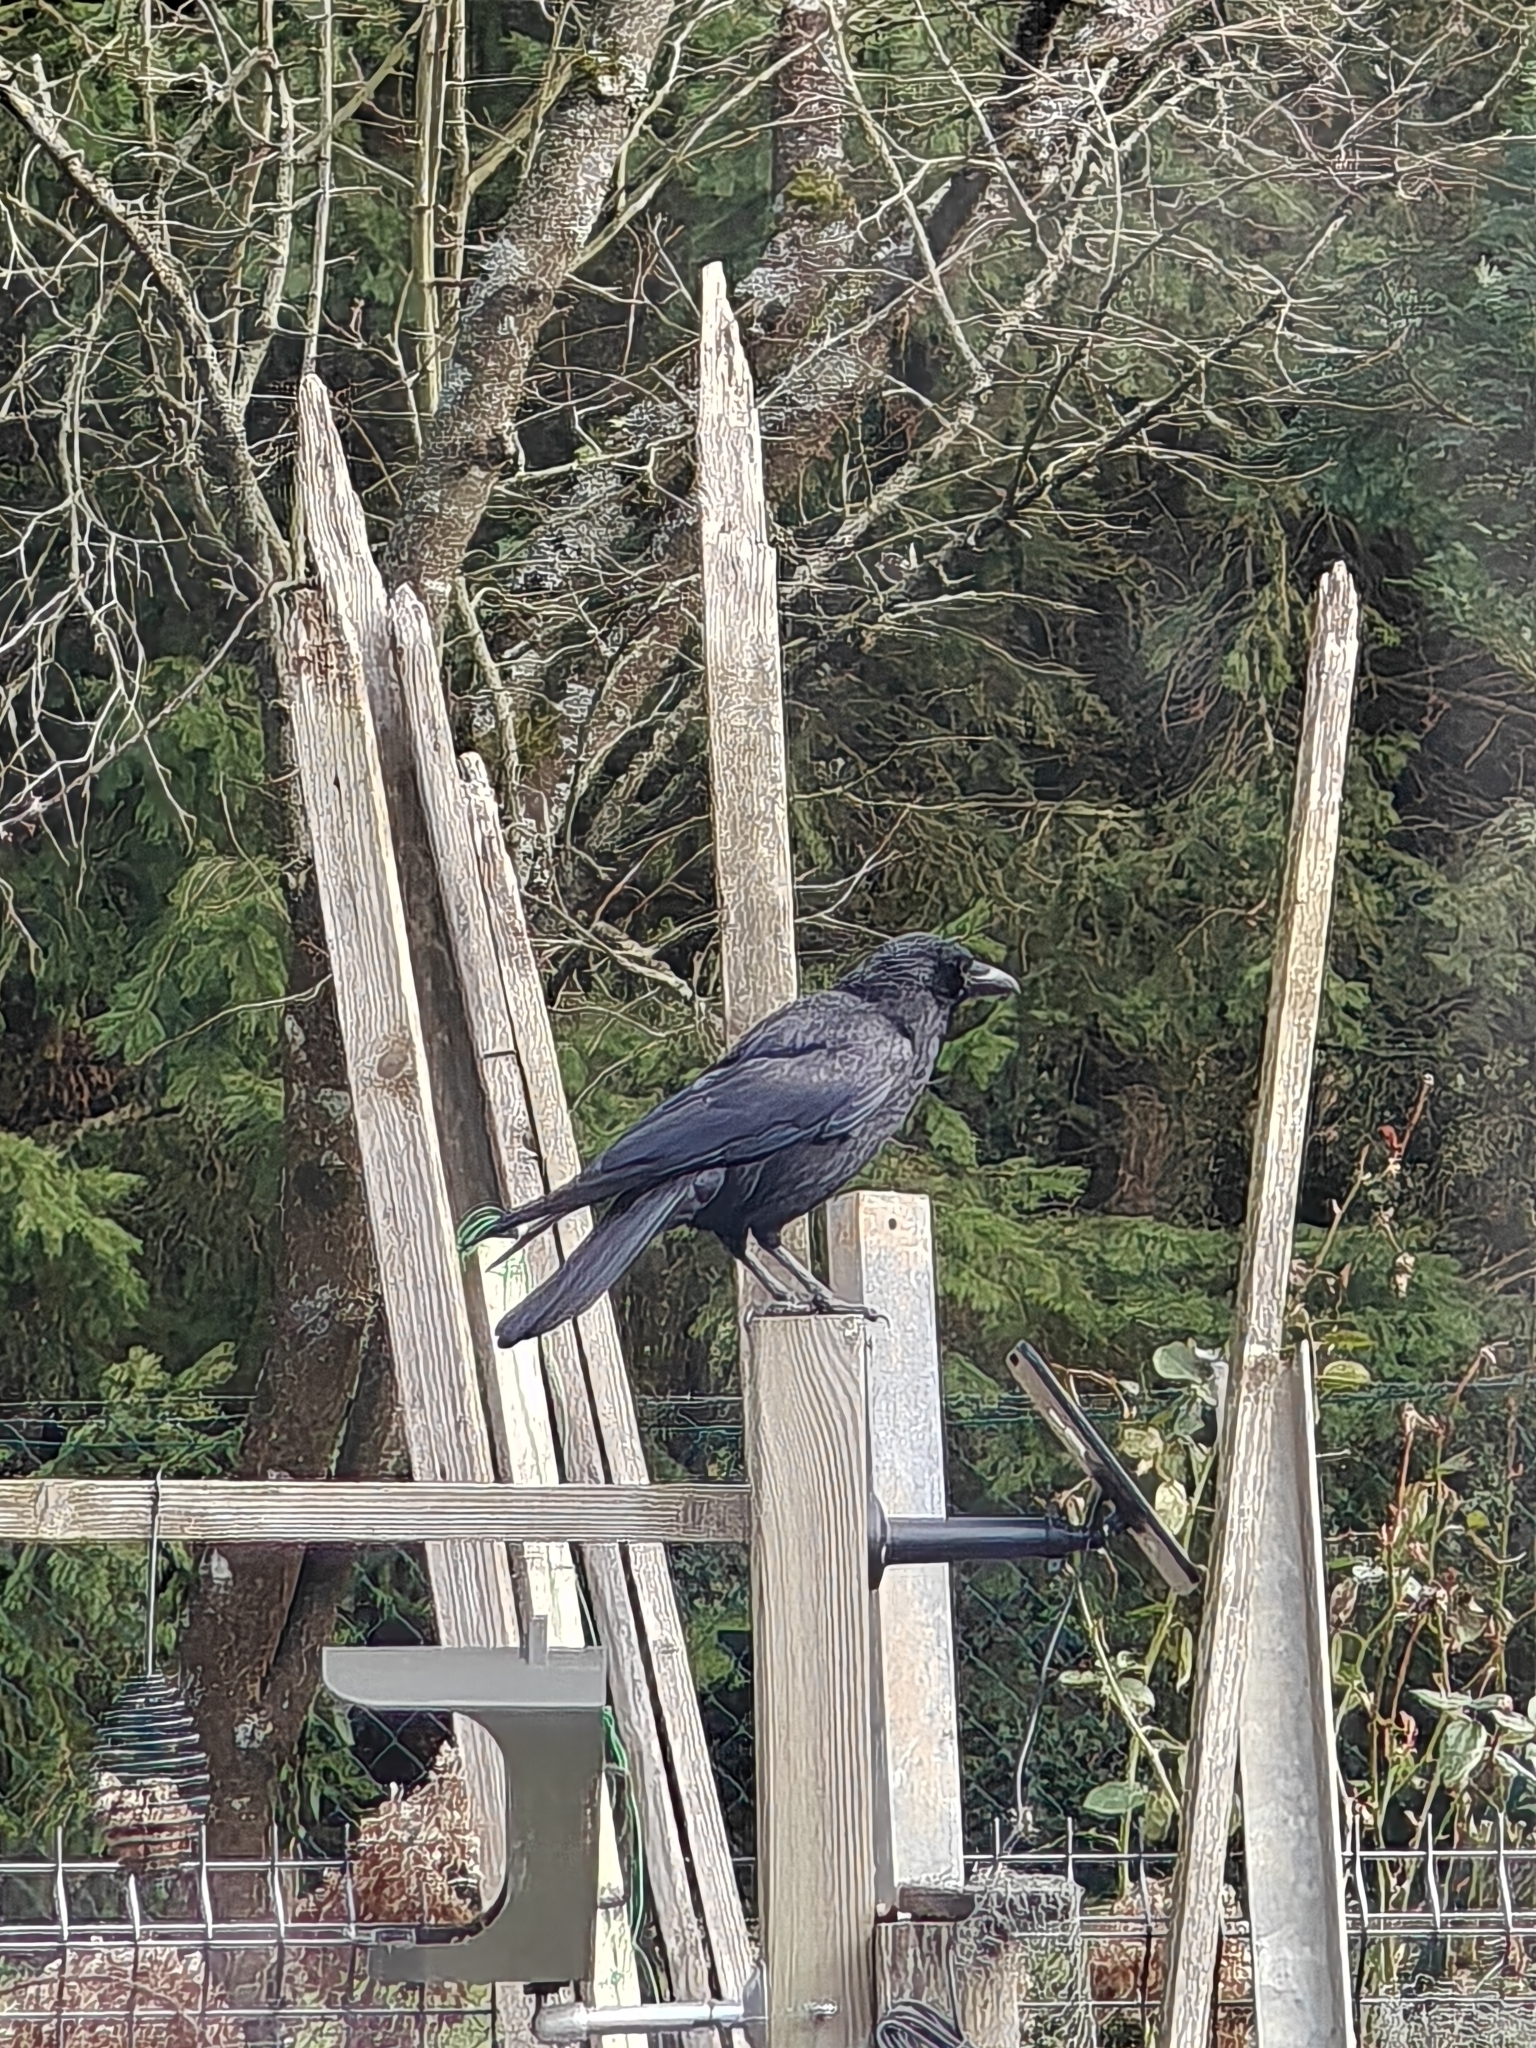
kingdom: Animalia
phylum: Chordata
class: Aves
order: Passeriformes
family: Corvidae
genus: Corvus
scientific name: Corvus corone
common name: Carrion crow
